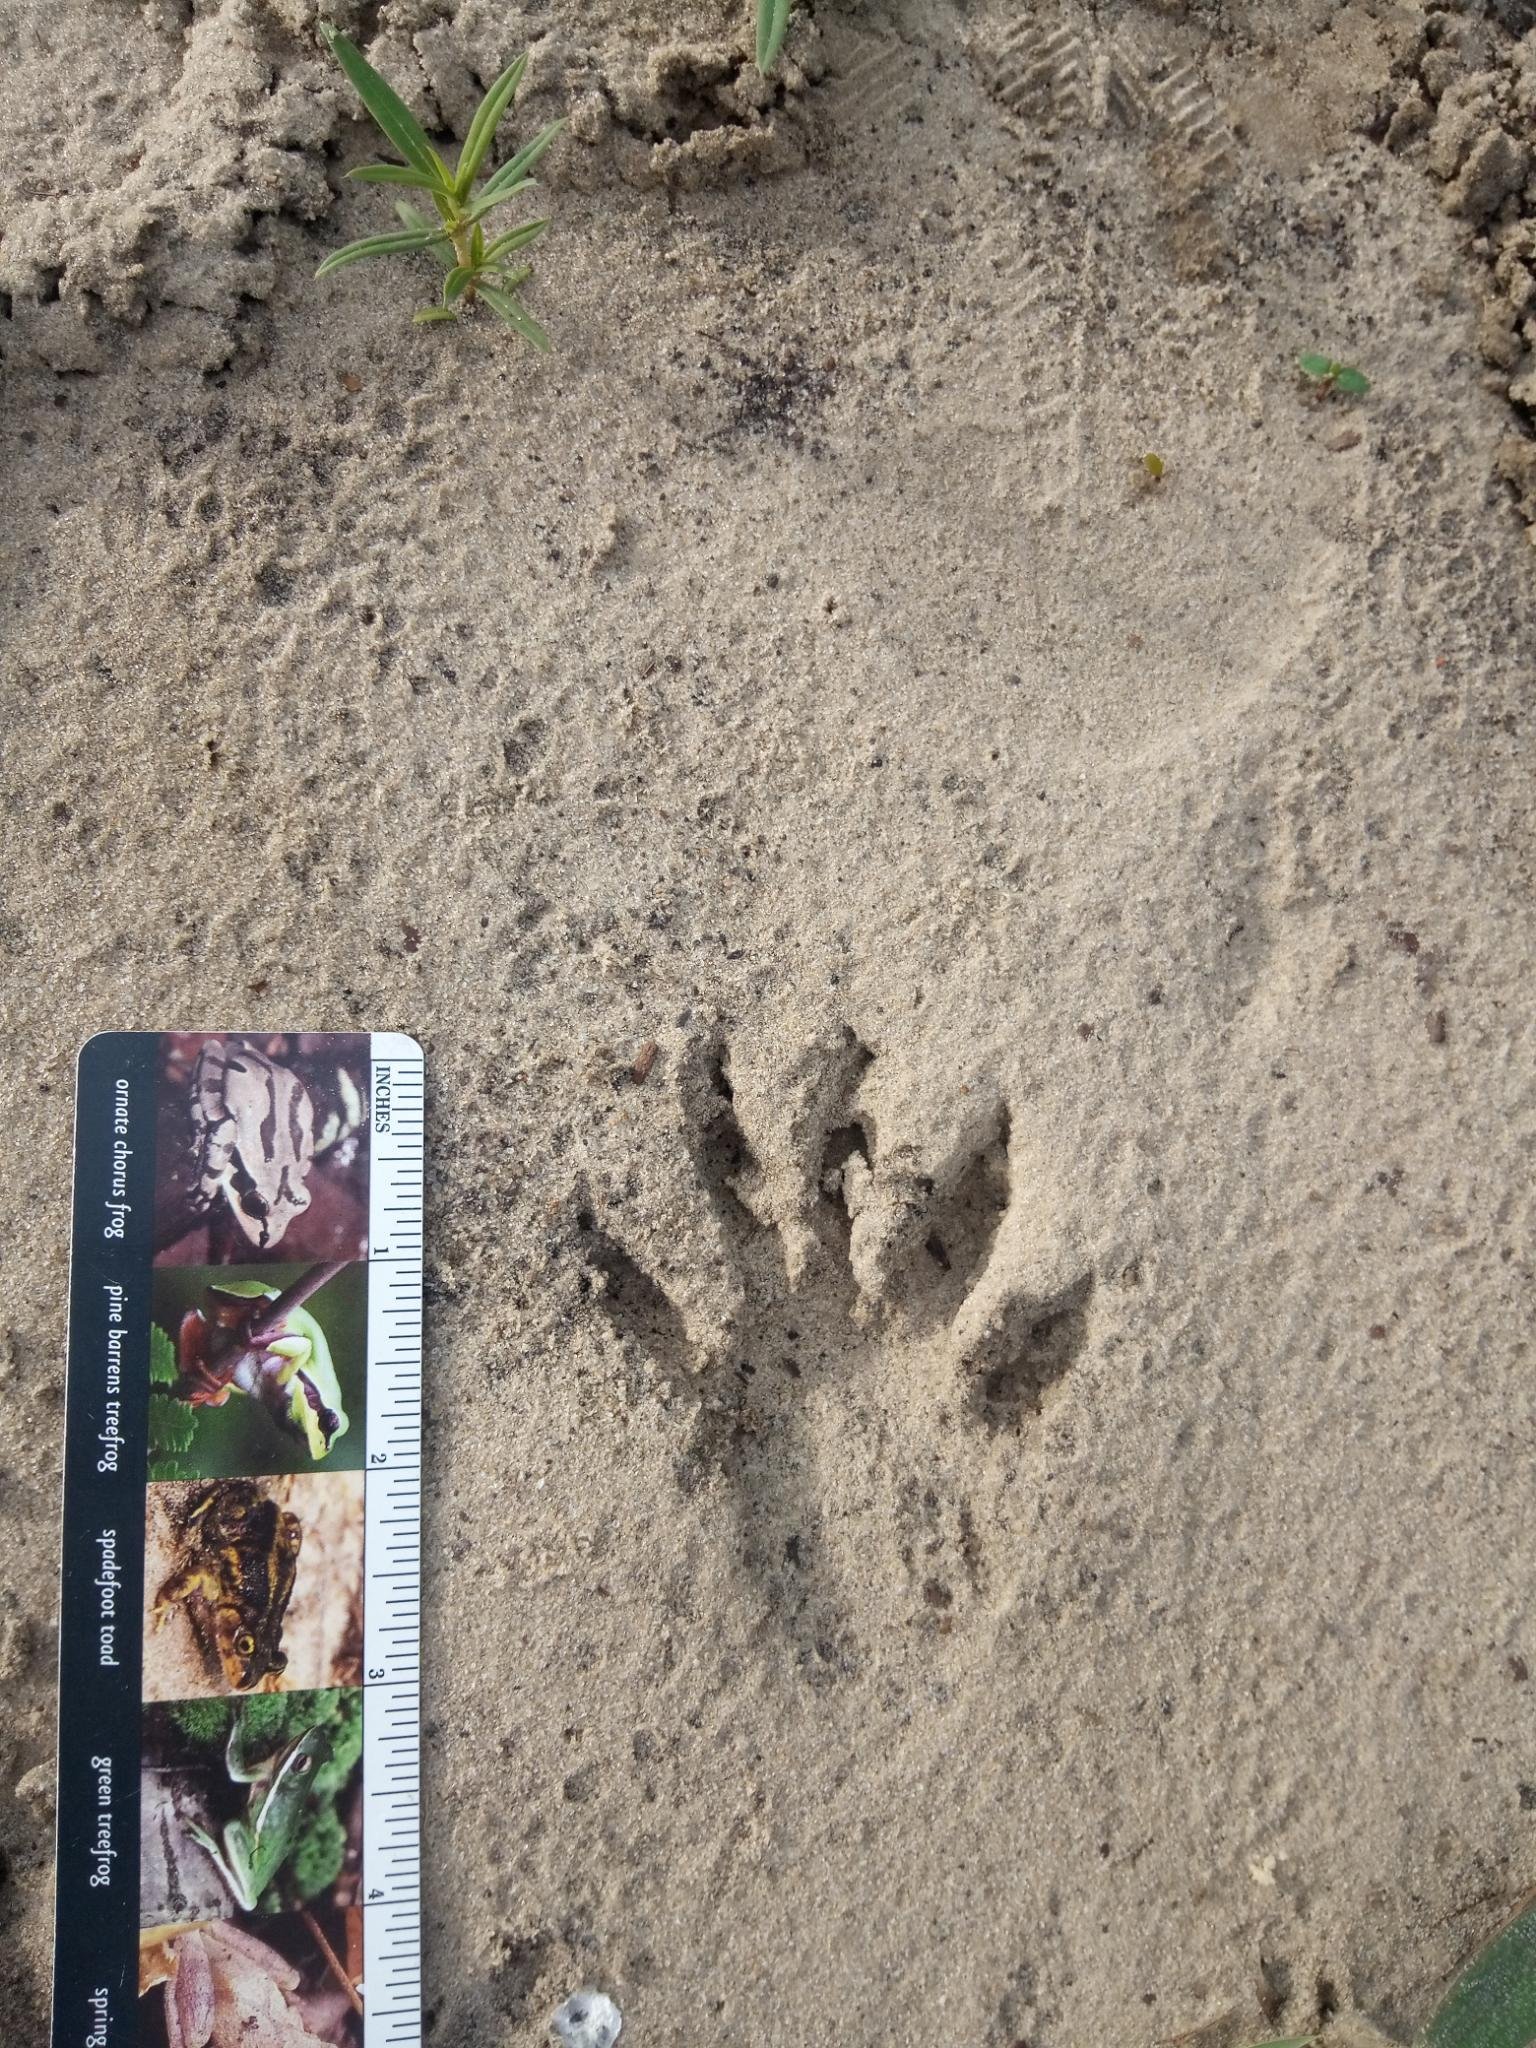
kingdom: Animalia
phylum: Chordata
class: Mammalia
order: Carnivora
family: Procyonidae
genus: Procyon
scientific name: Procyon lotor
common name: Raccoon
